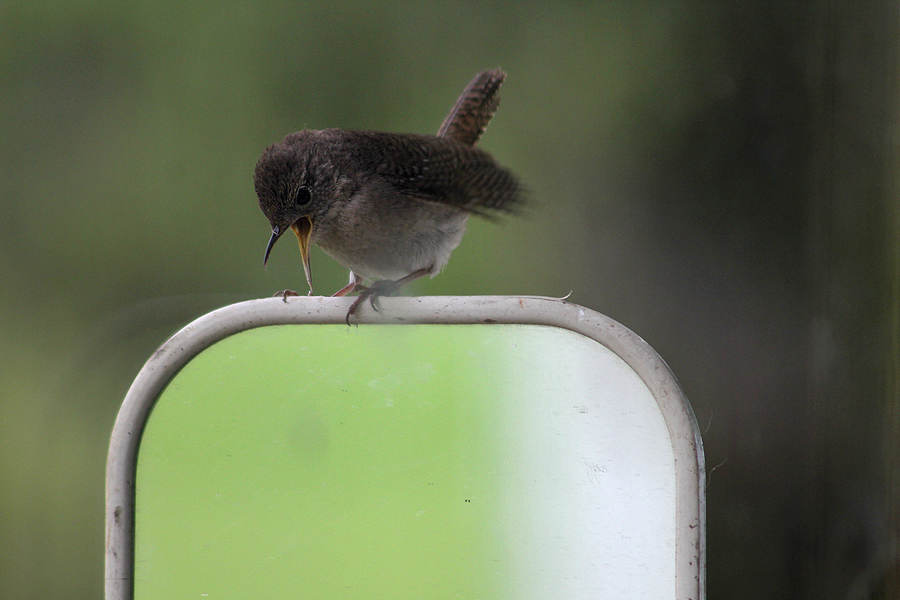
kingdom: Animalia
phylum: Chordata
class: Aves
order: Passeriformes
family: Troglodytidae
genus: Troglodytes
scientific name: Troglodytes aedon
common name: House wren
